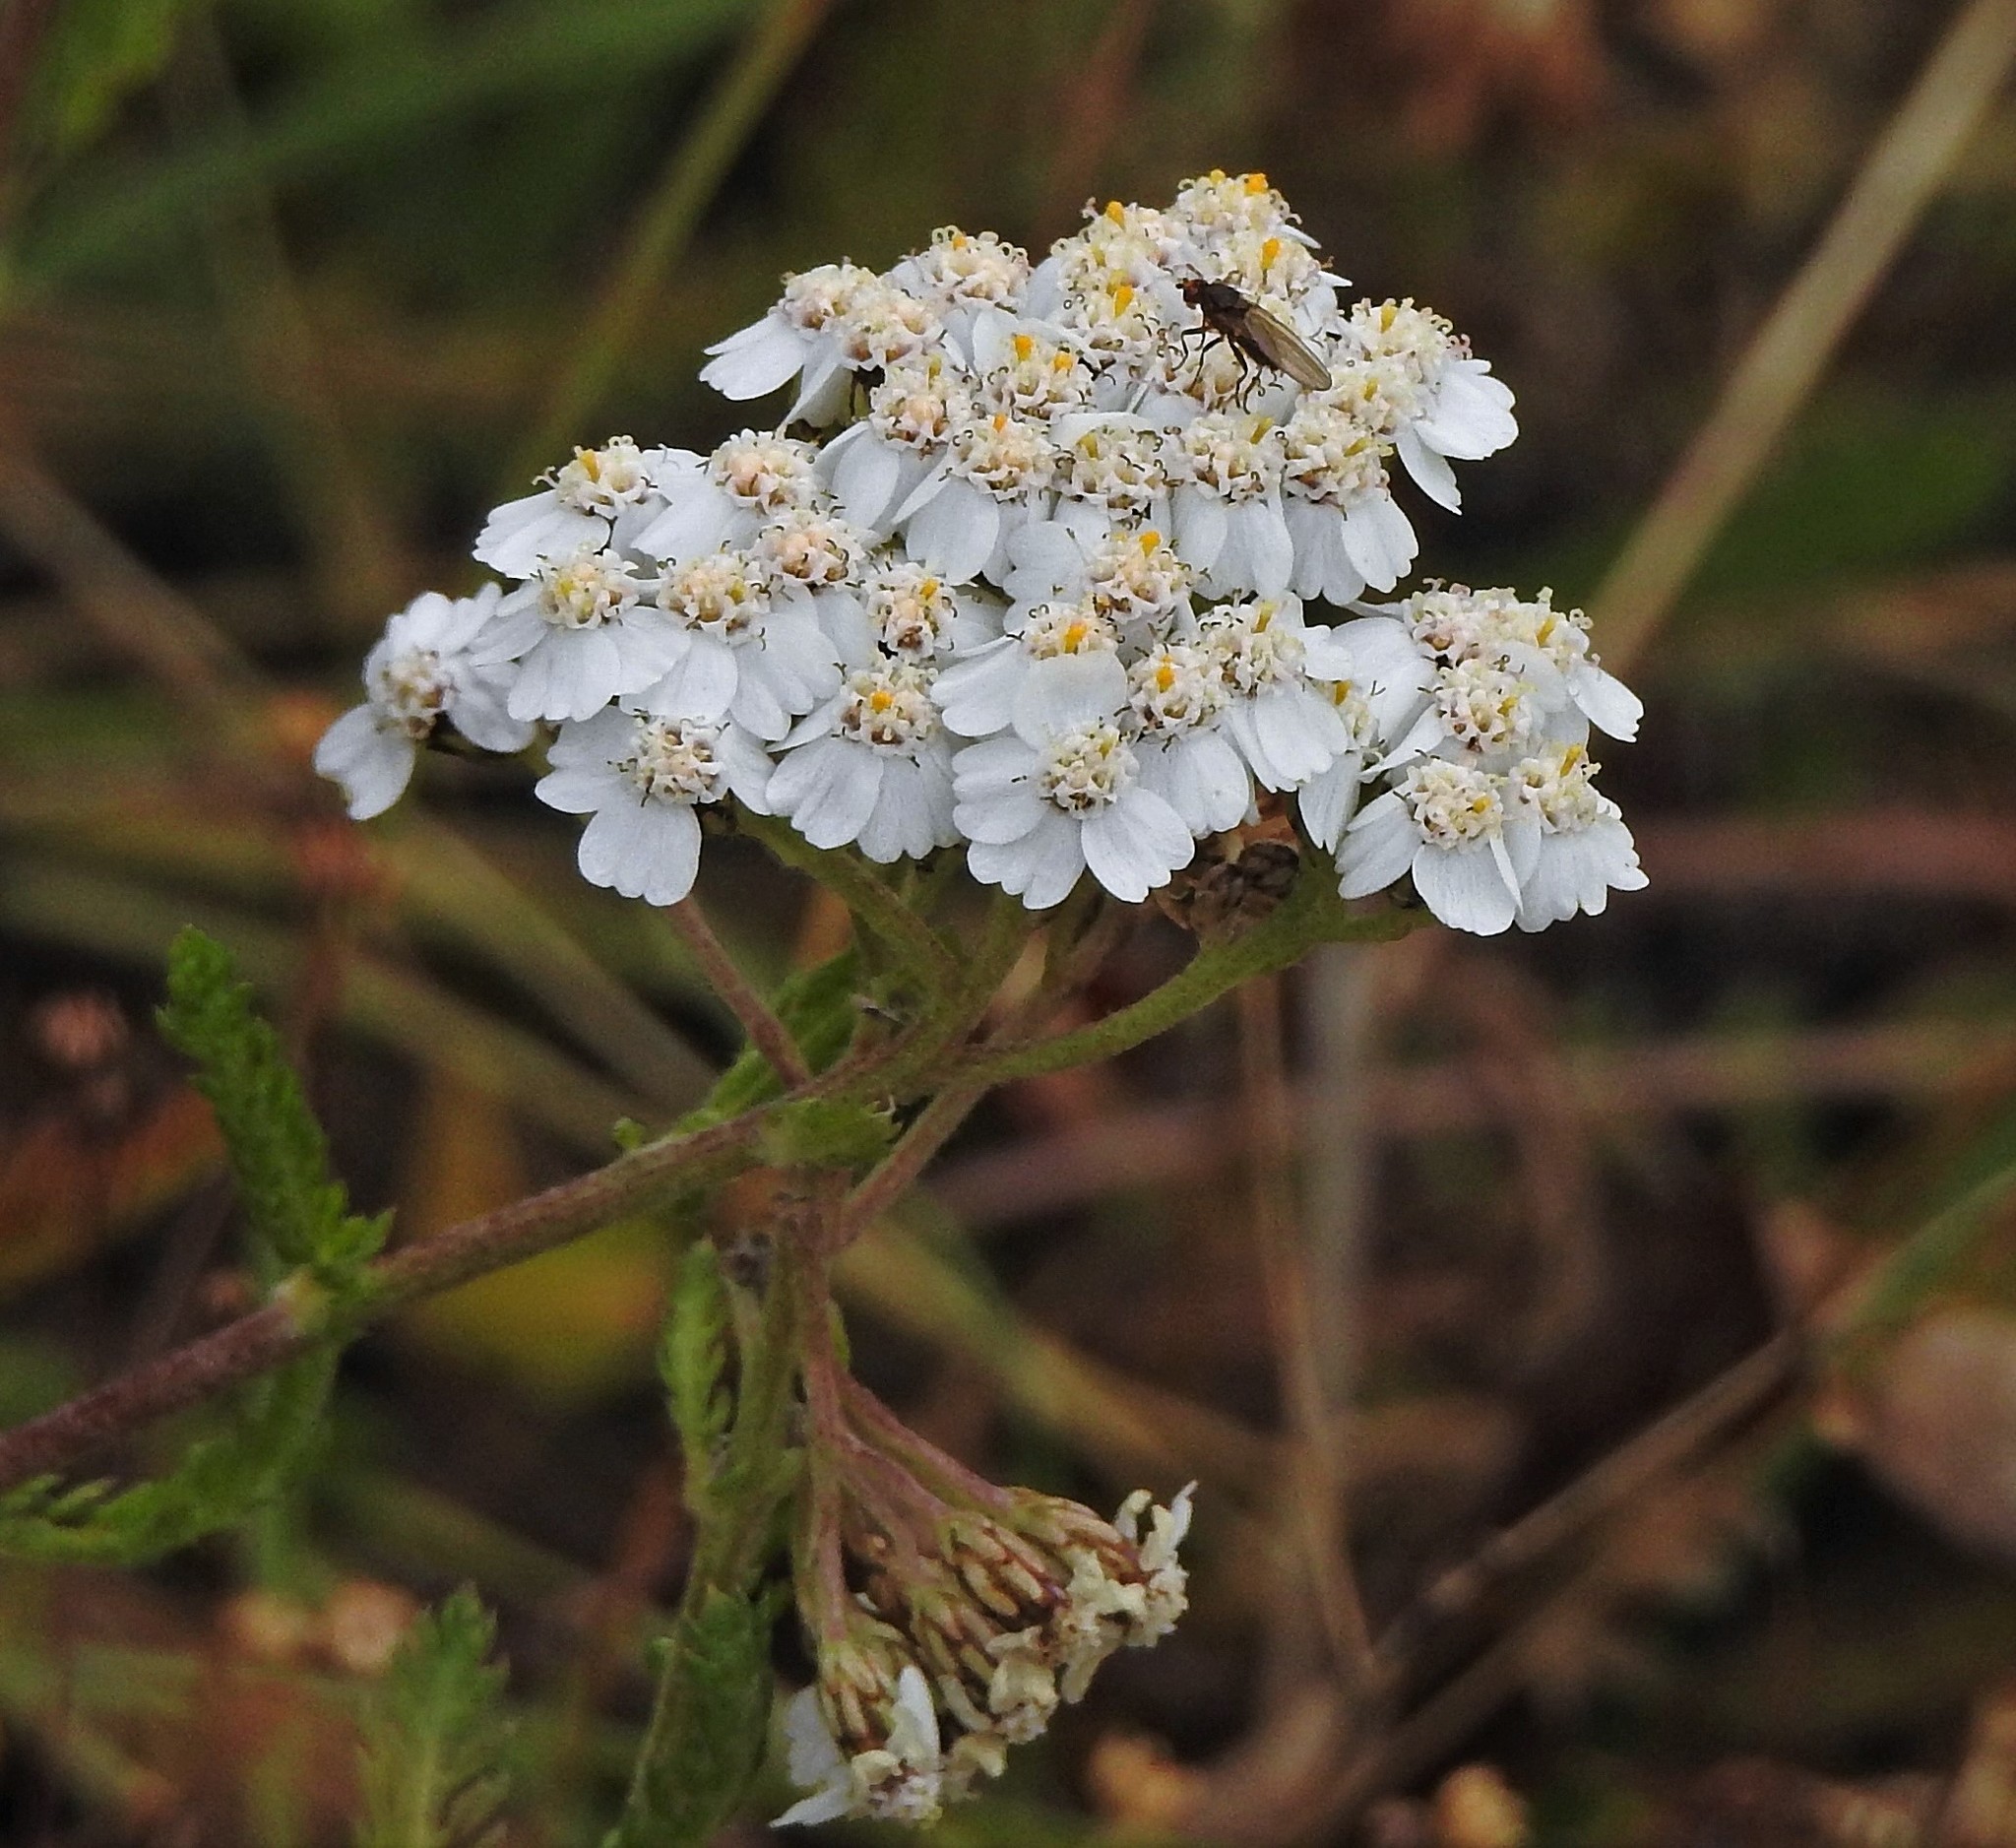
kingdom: Plantae
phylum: Tracheophyta
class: Magnoliopsida
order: Asterales
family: Asteraceae
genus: Achillea
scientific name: Achillea millefolium
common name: Yarrow
